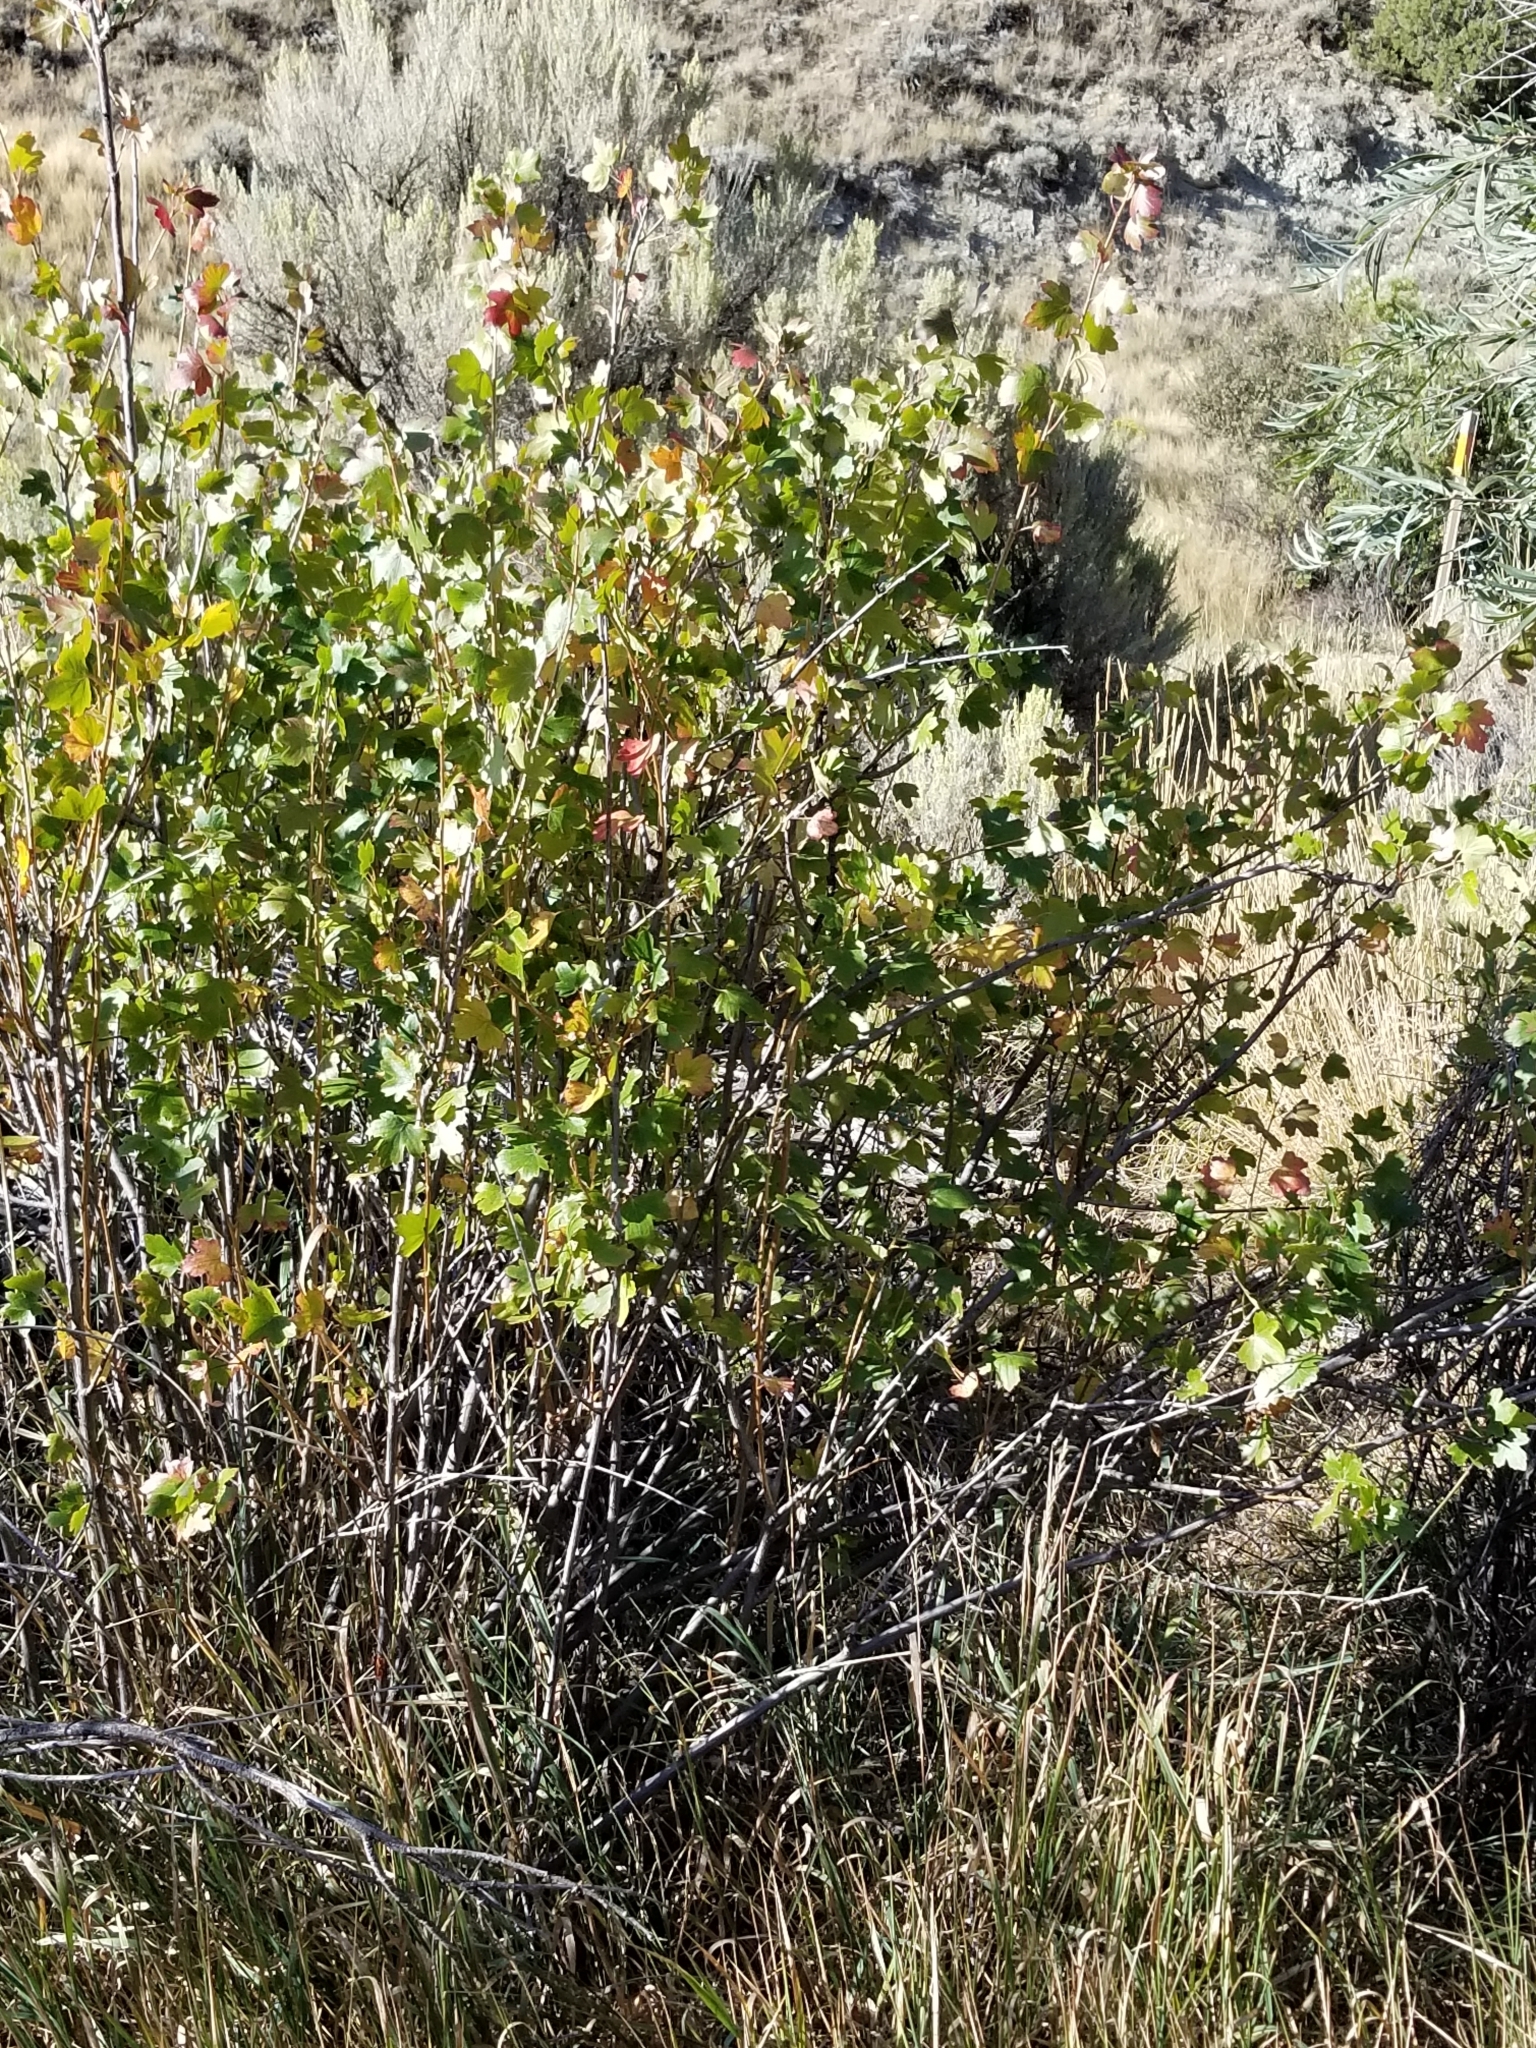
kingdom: Plantae
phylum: Tracheophyta
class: Magnoliopsida
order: Saxifragales
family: Grossulariaceae
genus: Ribes
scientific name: Ribes aureum
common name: Golden currant
